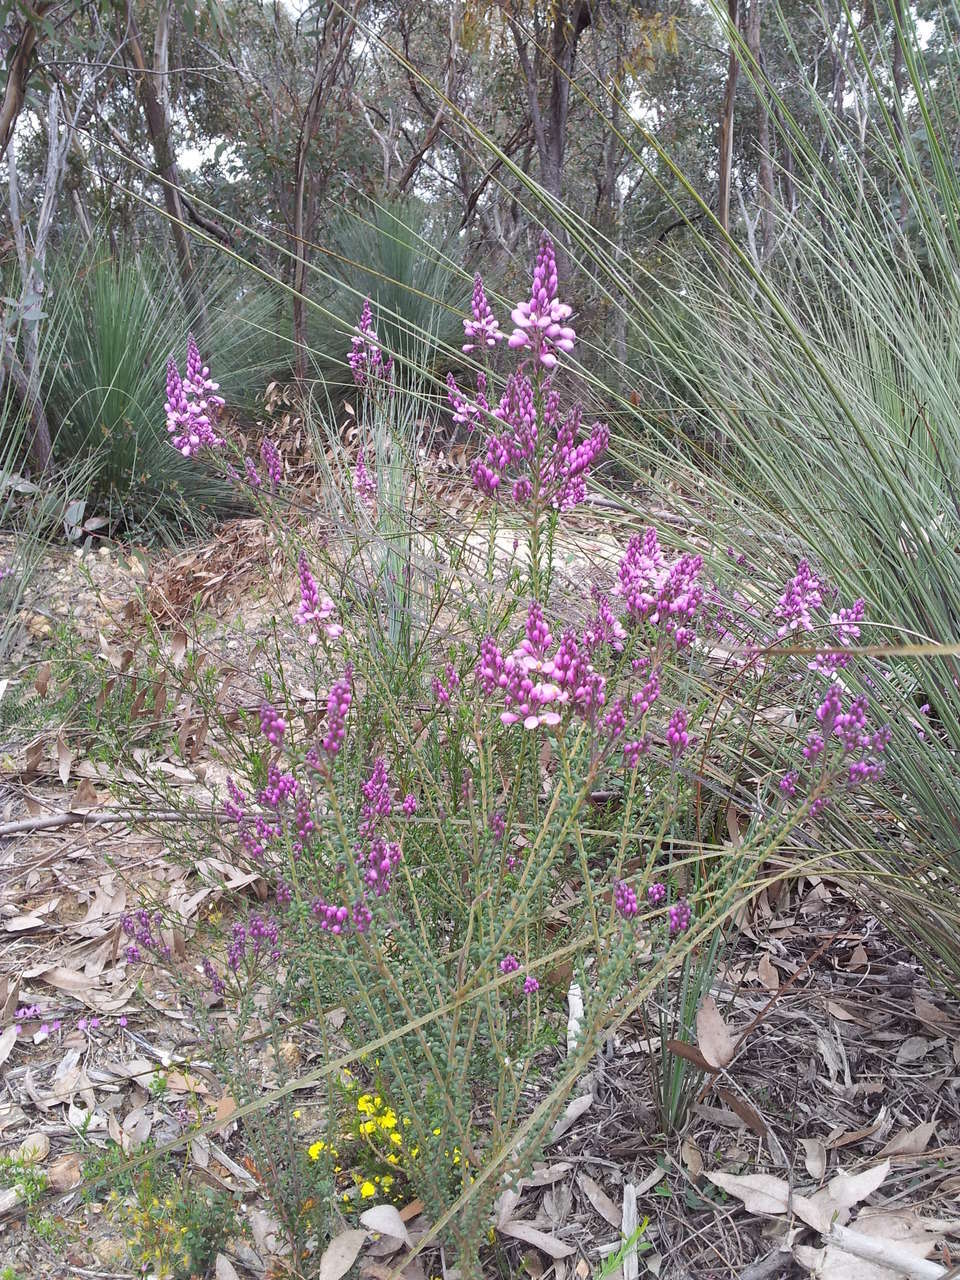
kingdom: Plantae
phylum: Tracheophyta
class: Magnoliopsida
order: Fabales
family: Polygalaceae
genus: Comesperma
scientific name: Comesperma ericinum
